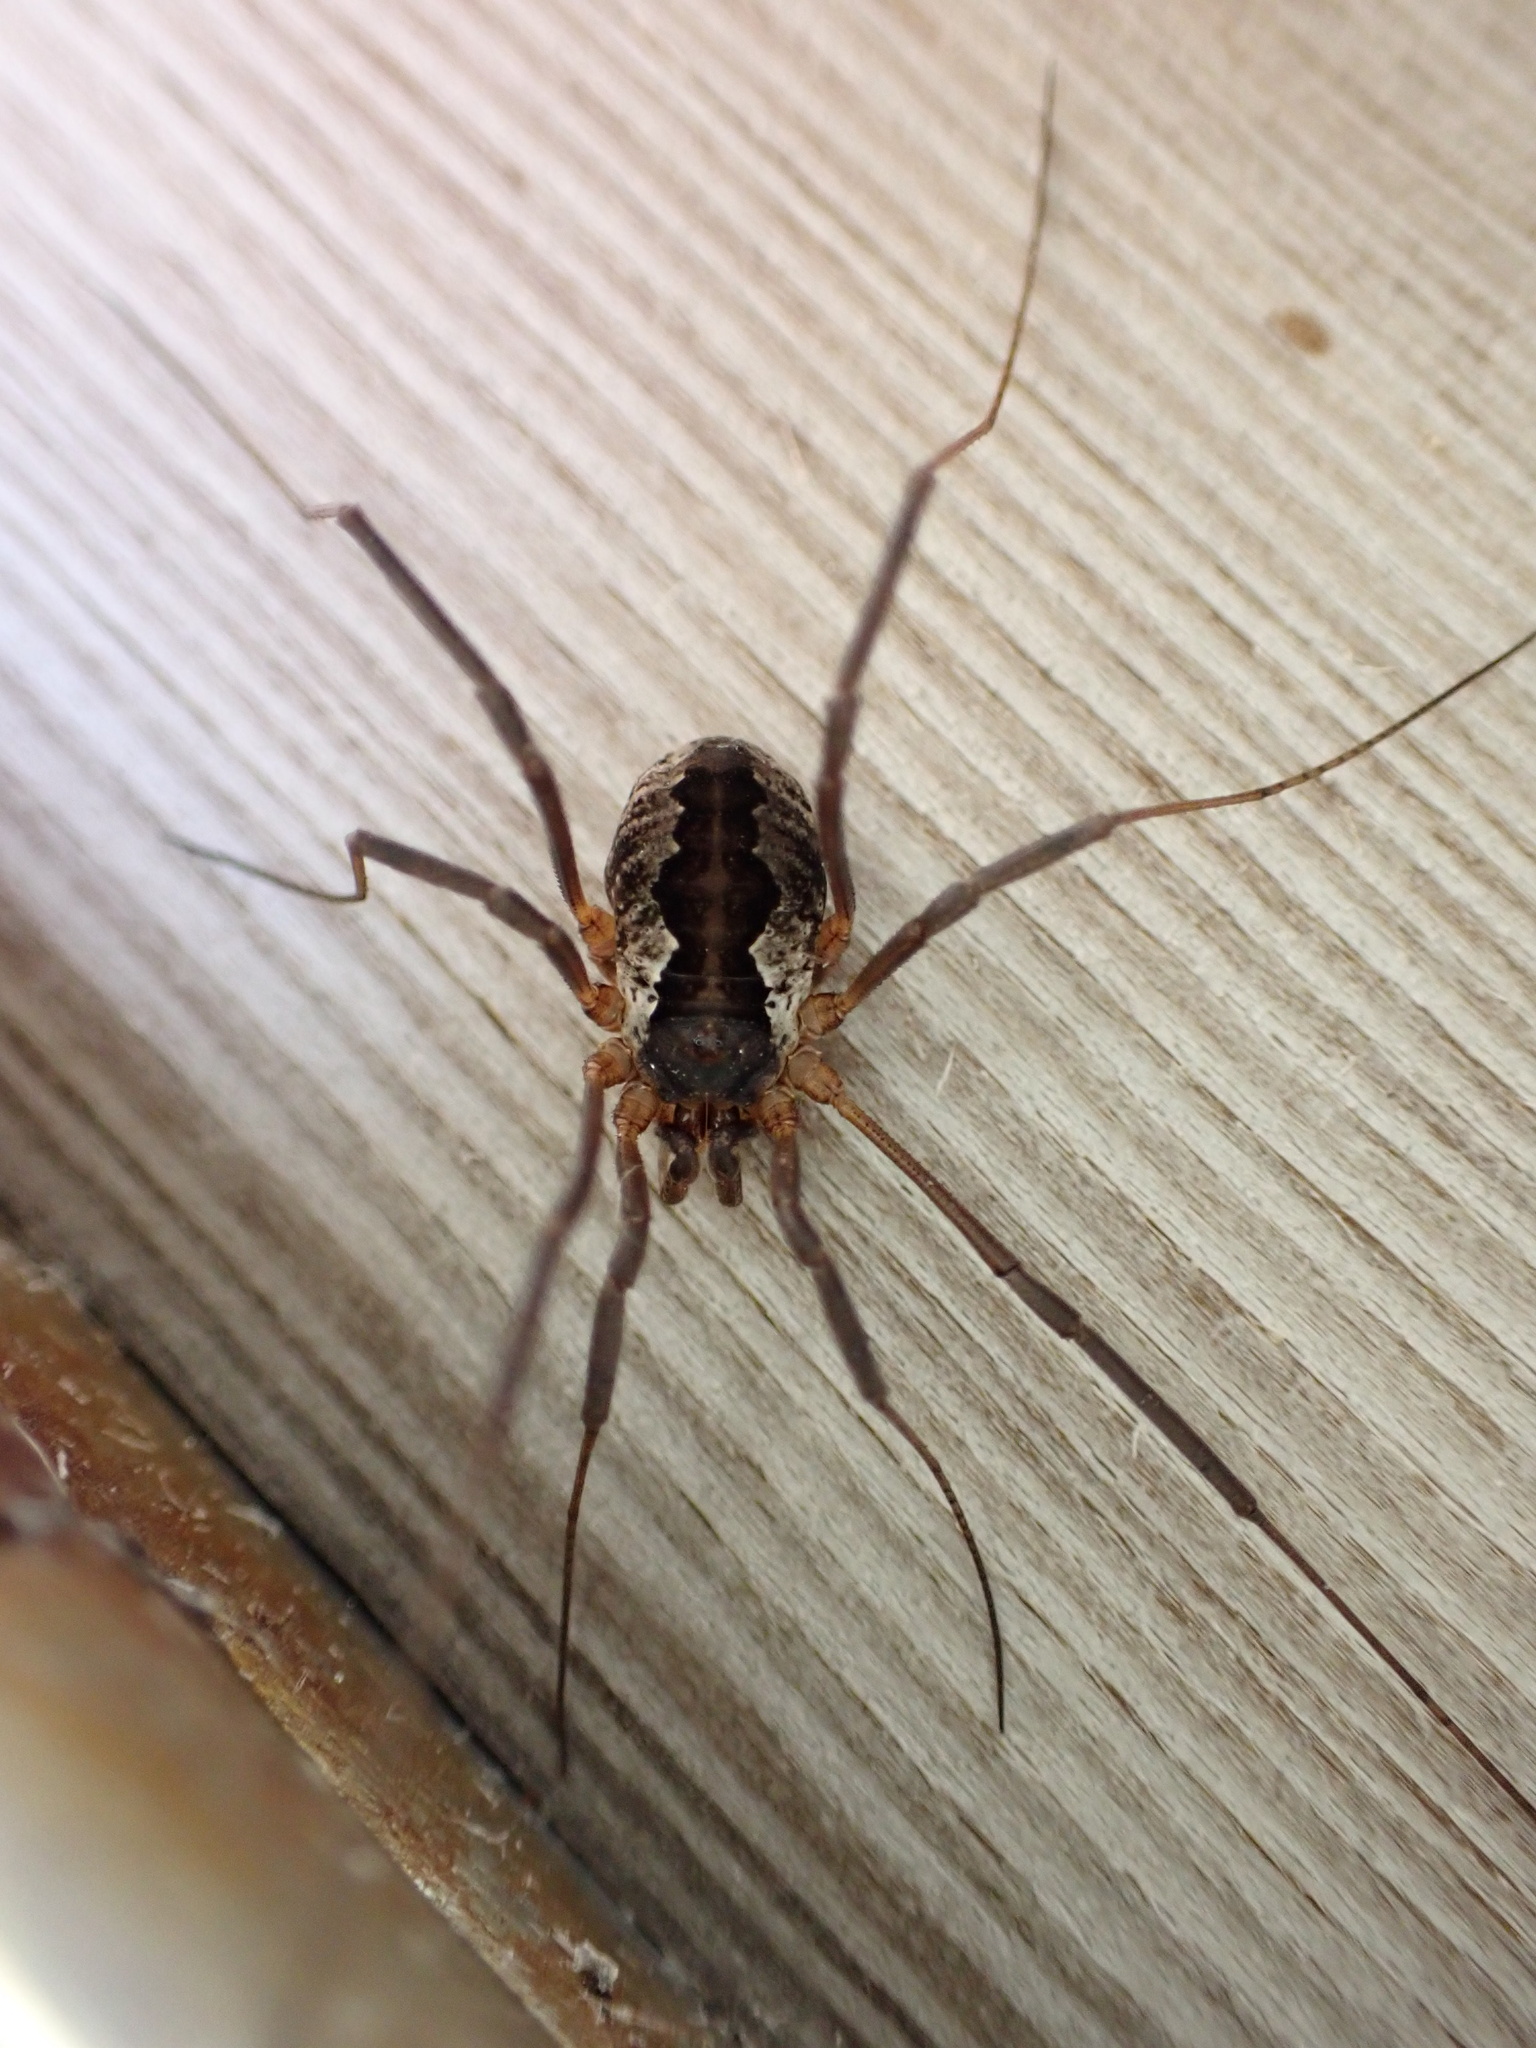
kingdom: Animalia
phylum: Arthropoda
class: Arachnida
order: Opiliones
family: Phalangiidae
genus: Mitopus
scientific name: Mitopus morio
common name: Saddleback harvestman
